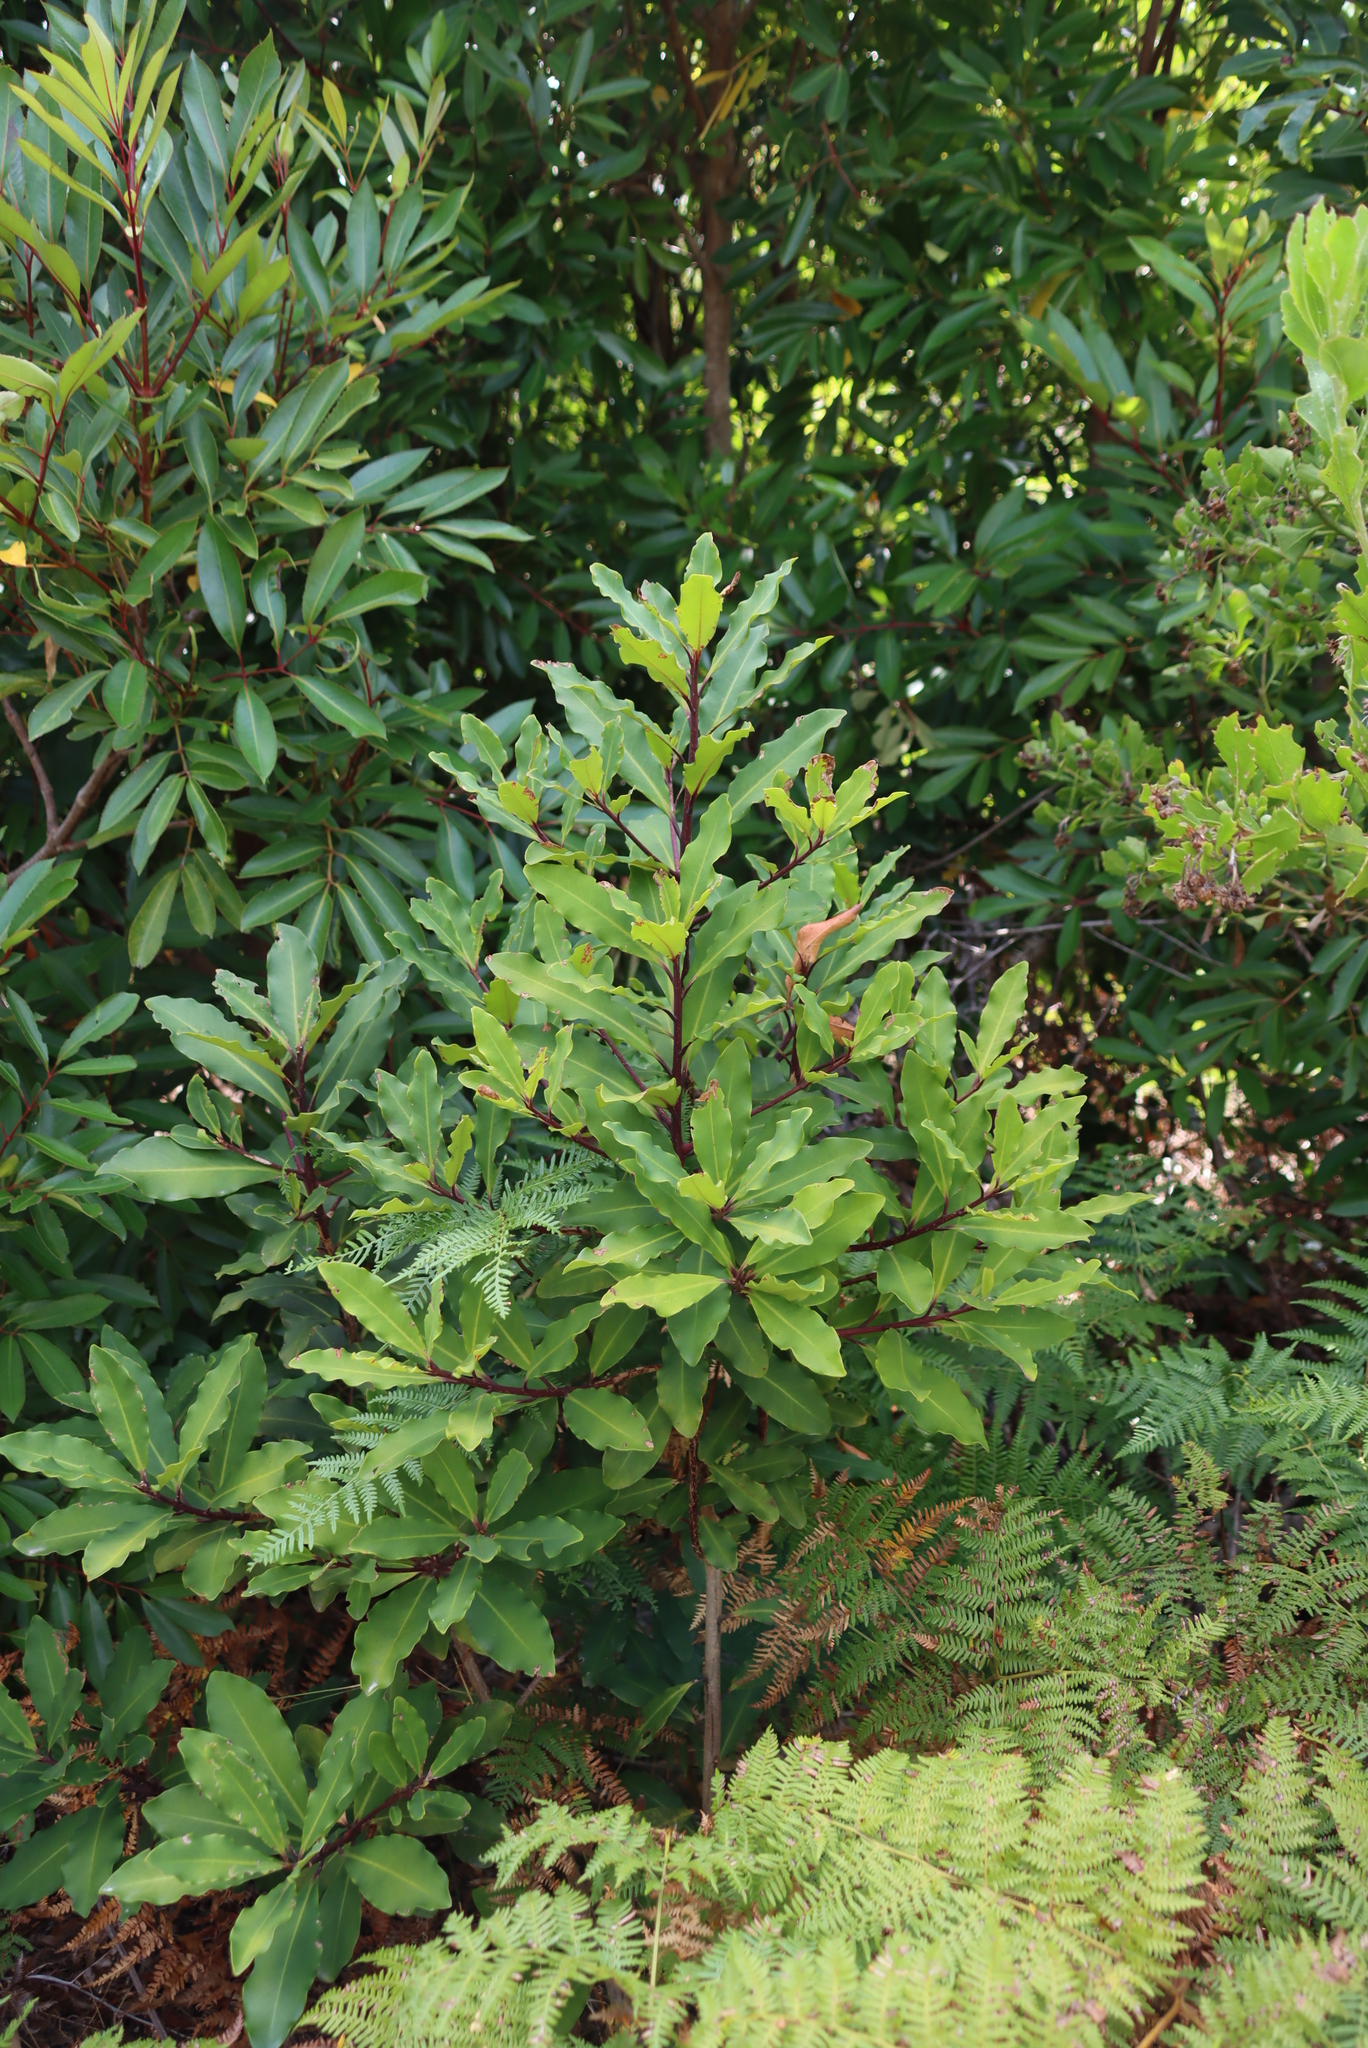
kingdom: Plantae
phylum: Tracheophyta
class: Magnoliopsida
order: Ericales
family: Primulaceae
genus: Myrsine
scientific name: Myrsine melanophloeos
